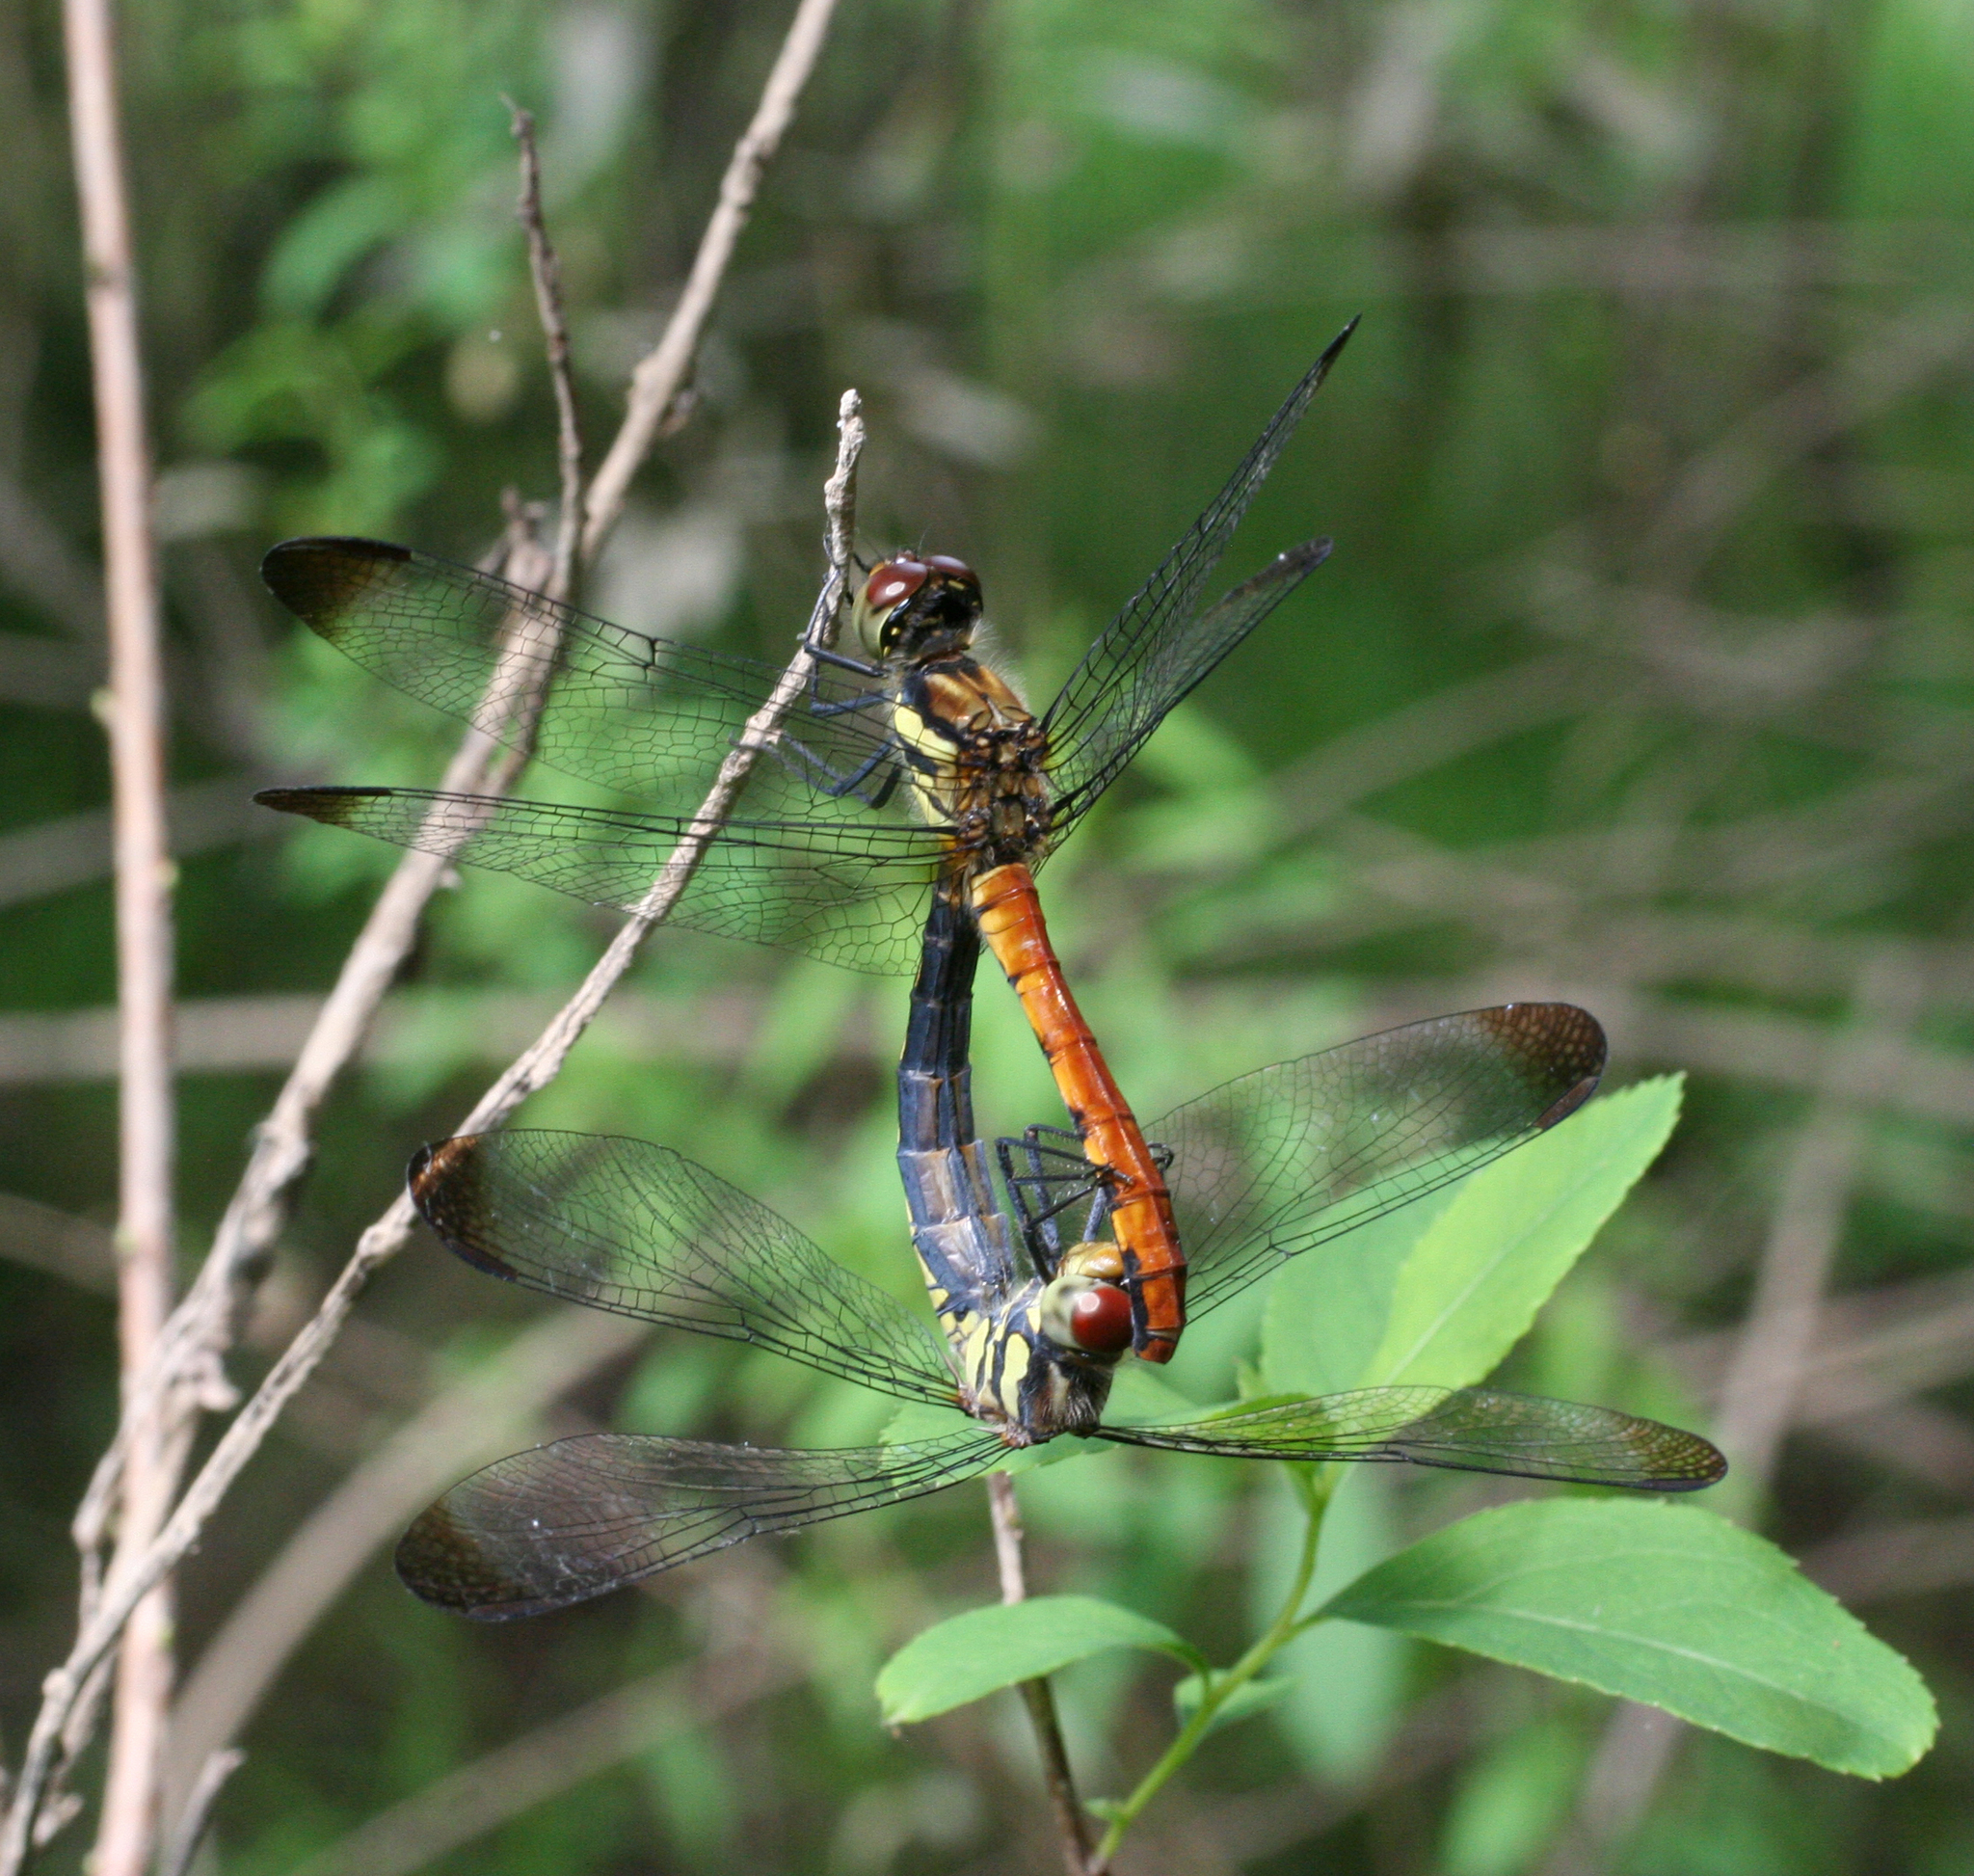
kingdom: Animalia
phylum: Arthropoda
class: Insecta
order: Odonata
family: Libellulidae
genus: Sympetrum
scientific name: Sympetrum risi
